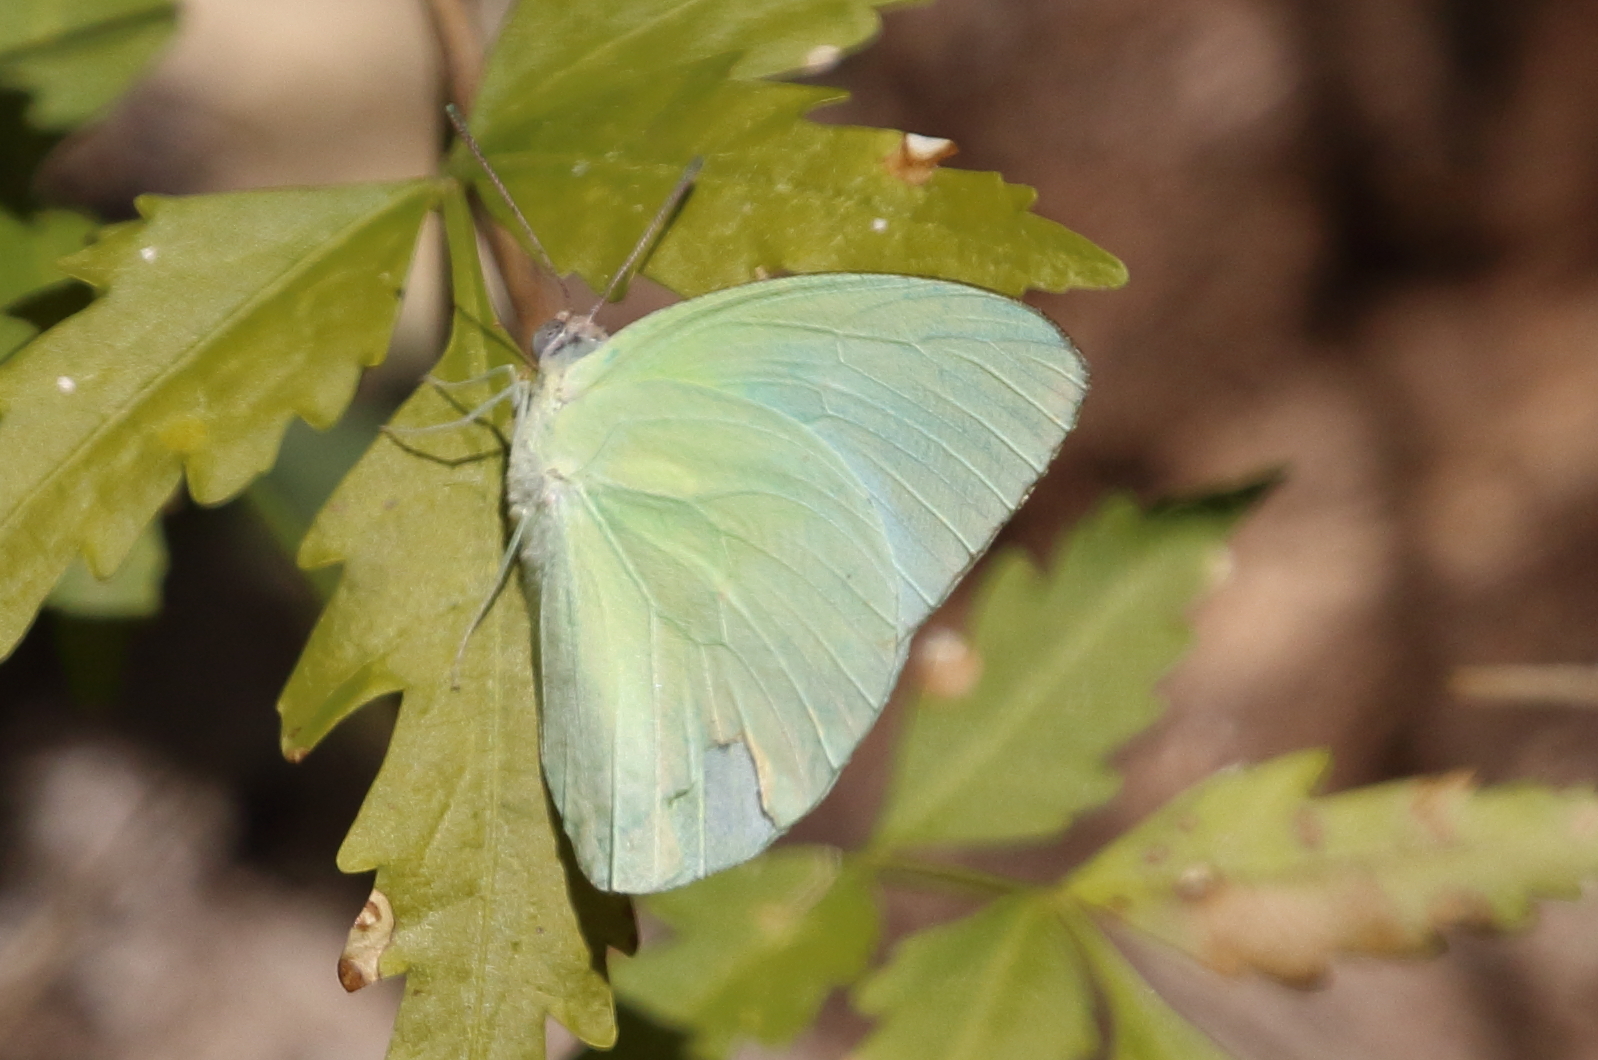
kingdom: Animalia
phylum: Arthropoda
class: Insecta
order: Lepidoptera
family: Pieridae
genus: Catopsilia
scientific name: Catopsilia pomona
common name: Common emigrant
